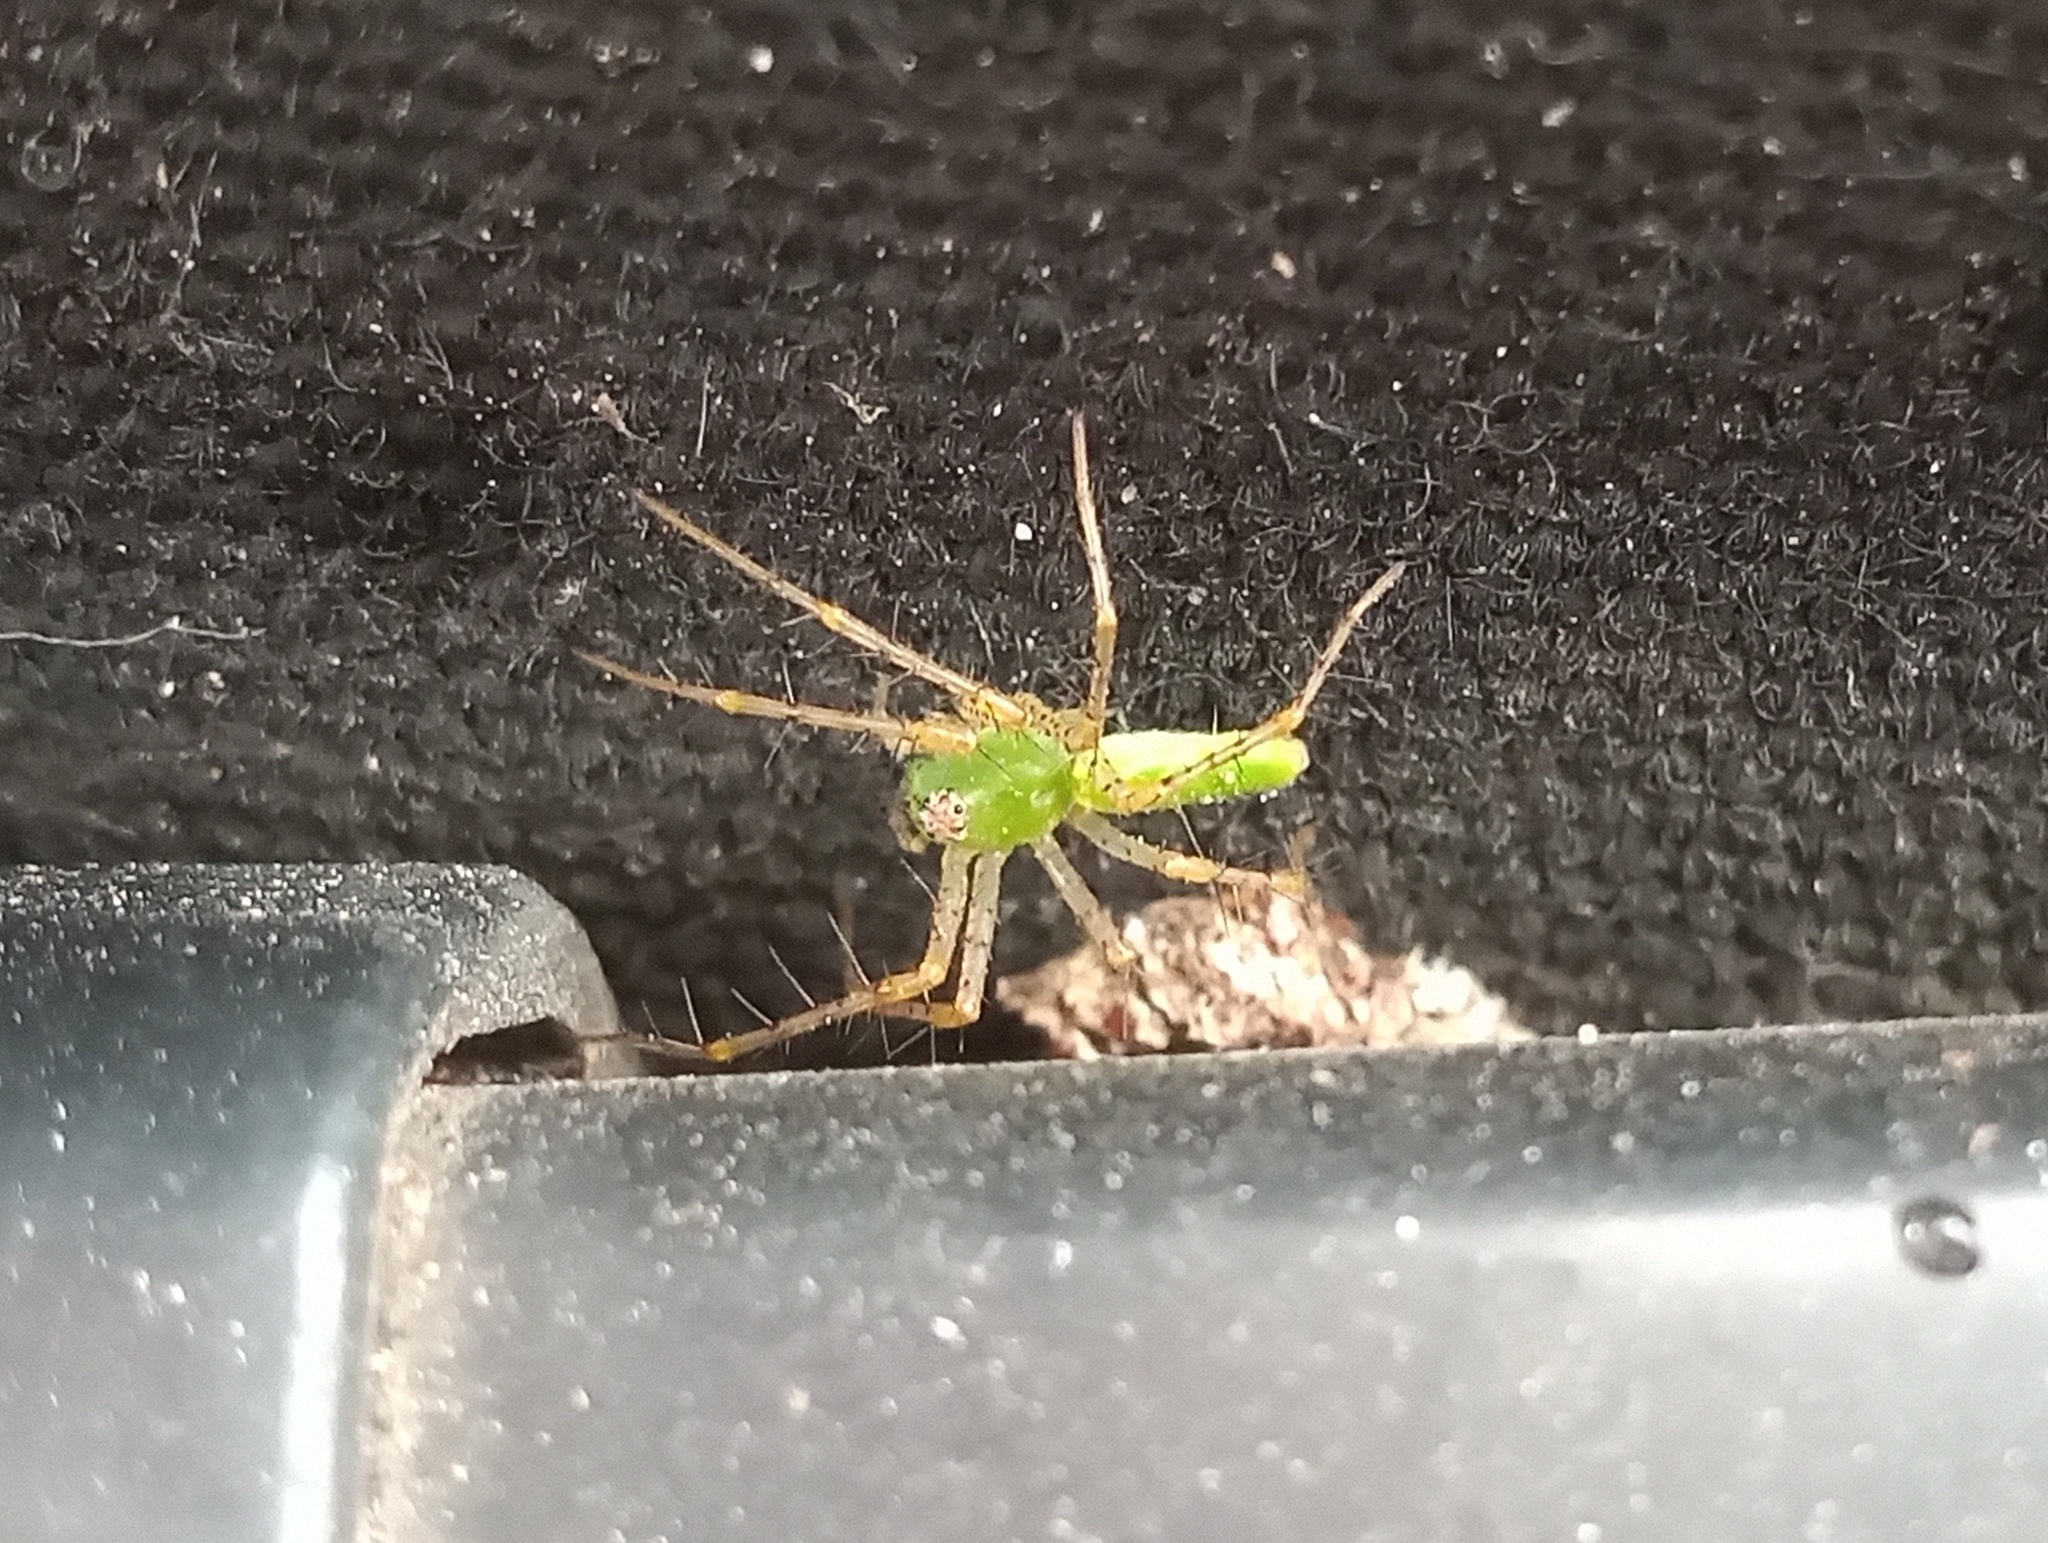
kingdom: Animalia
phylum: Arthropoda
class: Arachnida
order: Araneae
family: Oxyopidae
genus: Peucetia
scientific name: Peucetia viridans
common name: Lynx spiders
